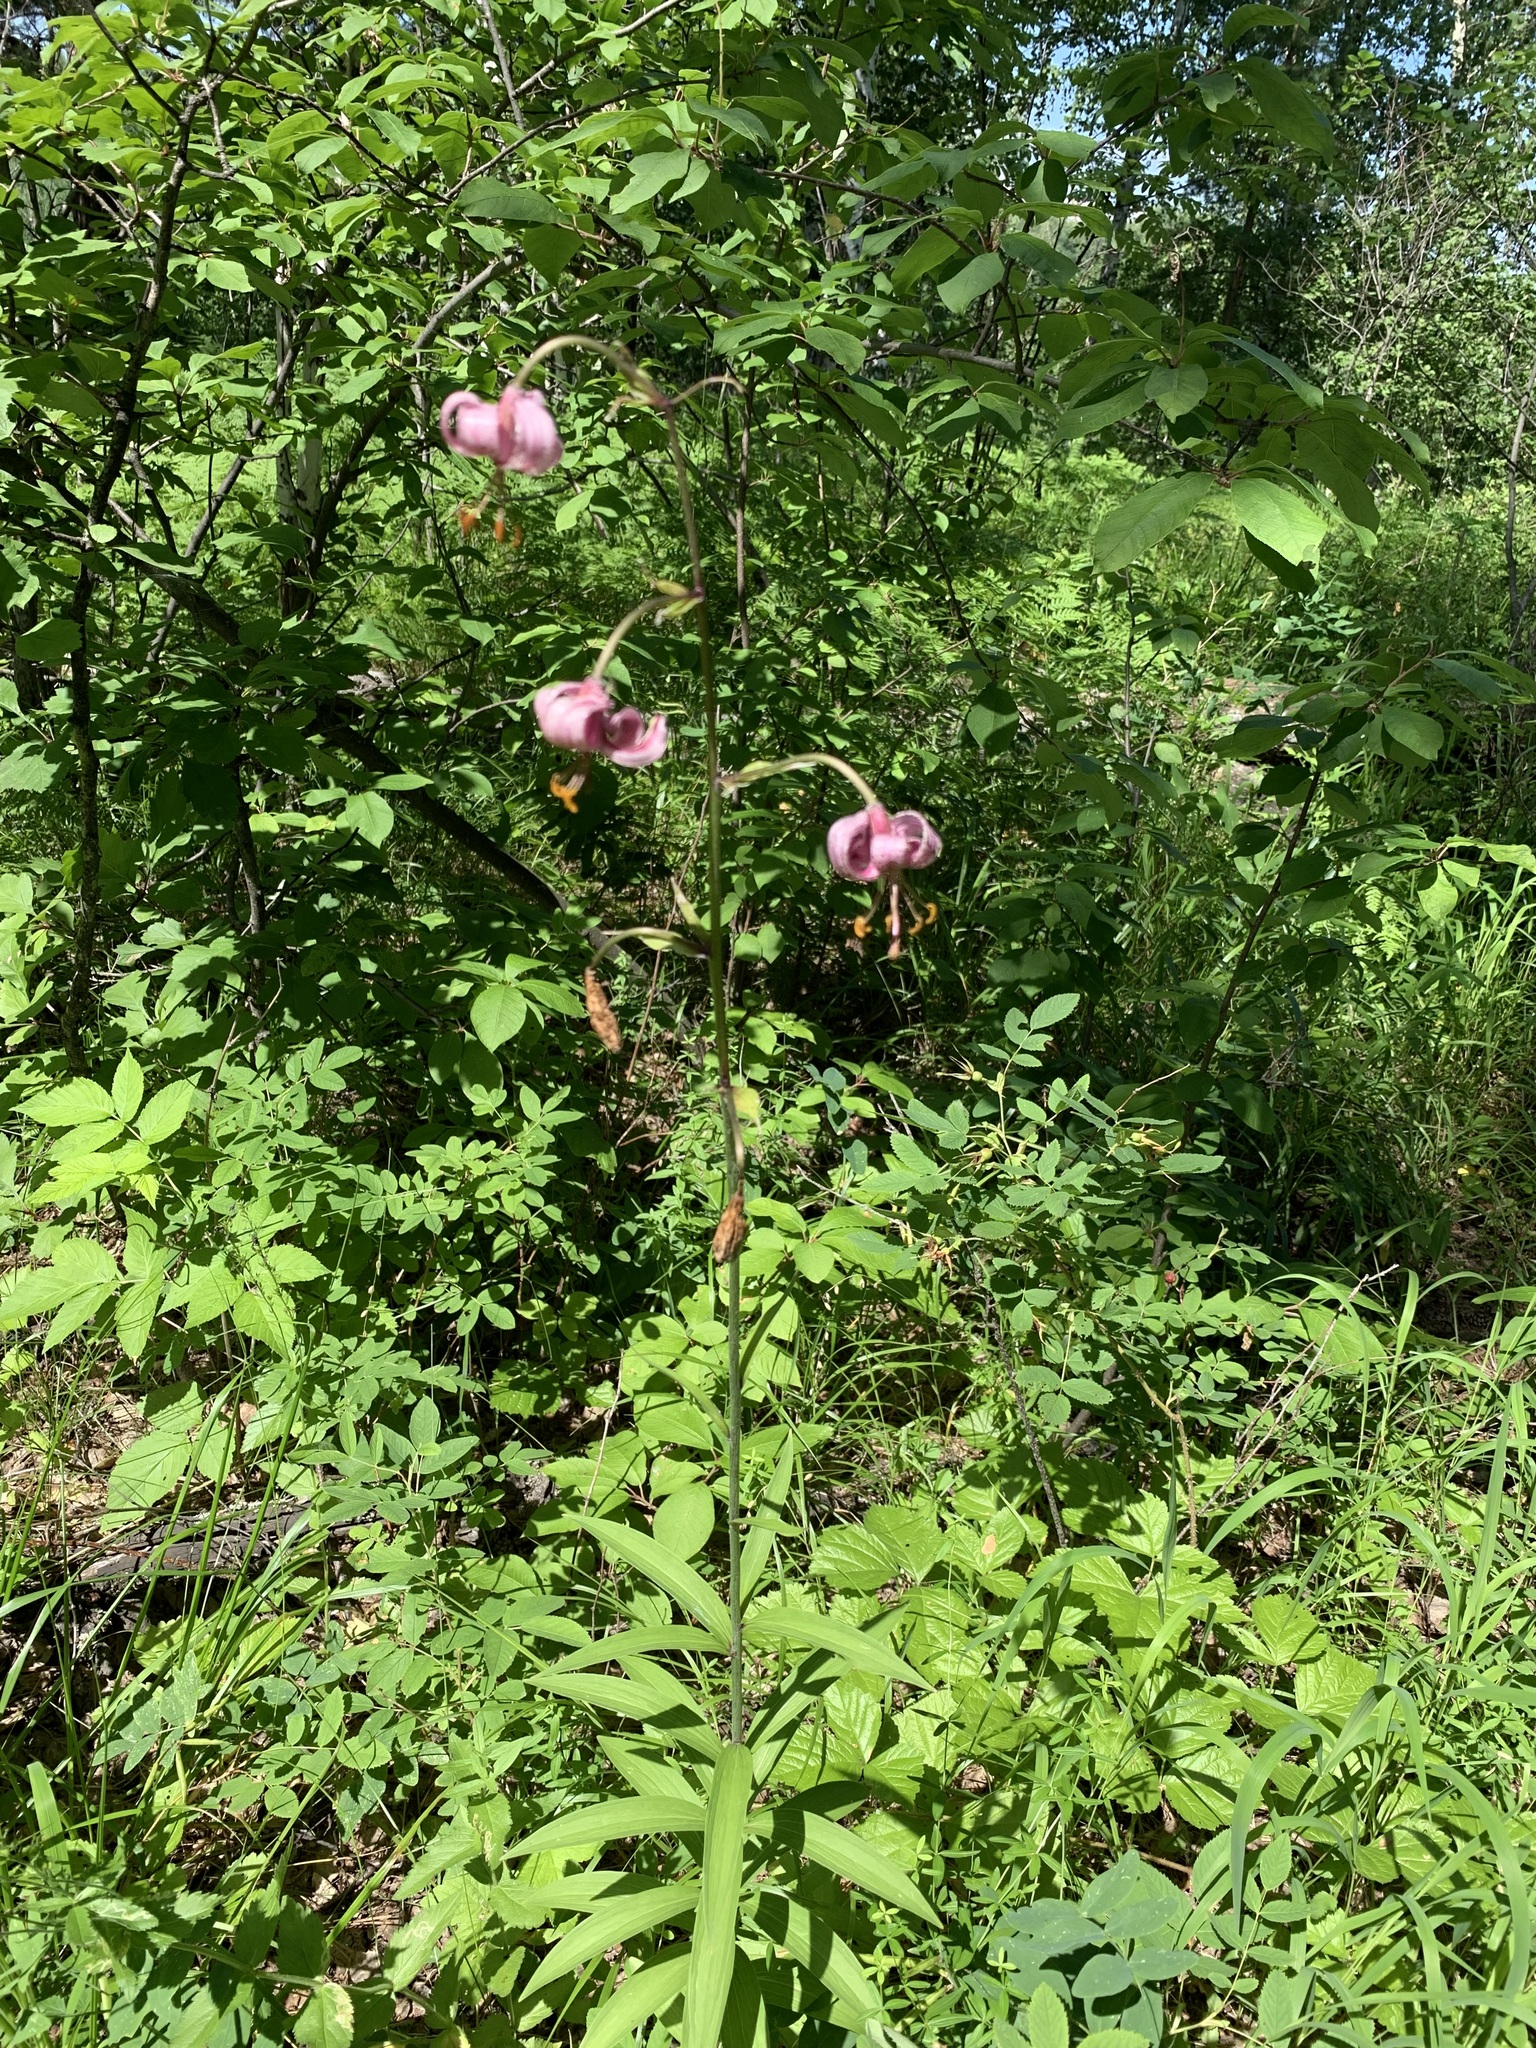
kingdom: Plantae
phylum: Tracheophyta
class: Liliopsida
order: Liliales
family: Liliaceae
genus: Lilium
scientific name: Lilium martagon
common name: Martagon lily
